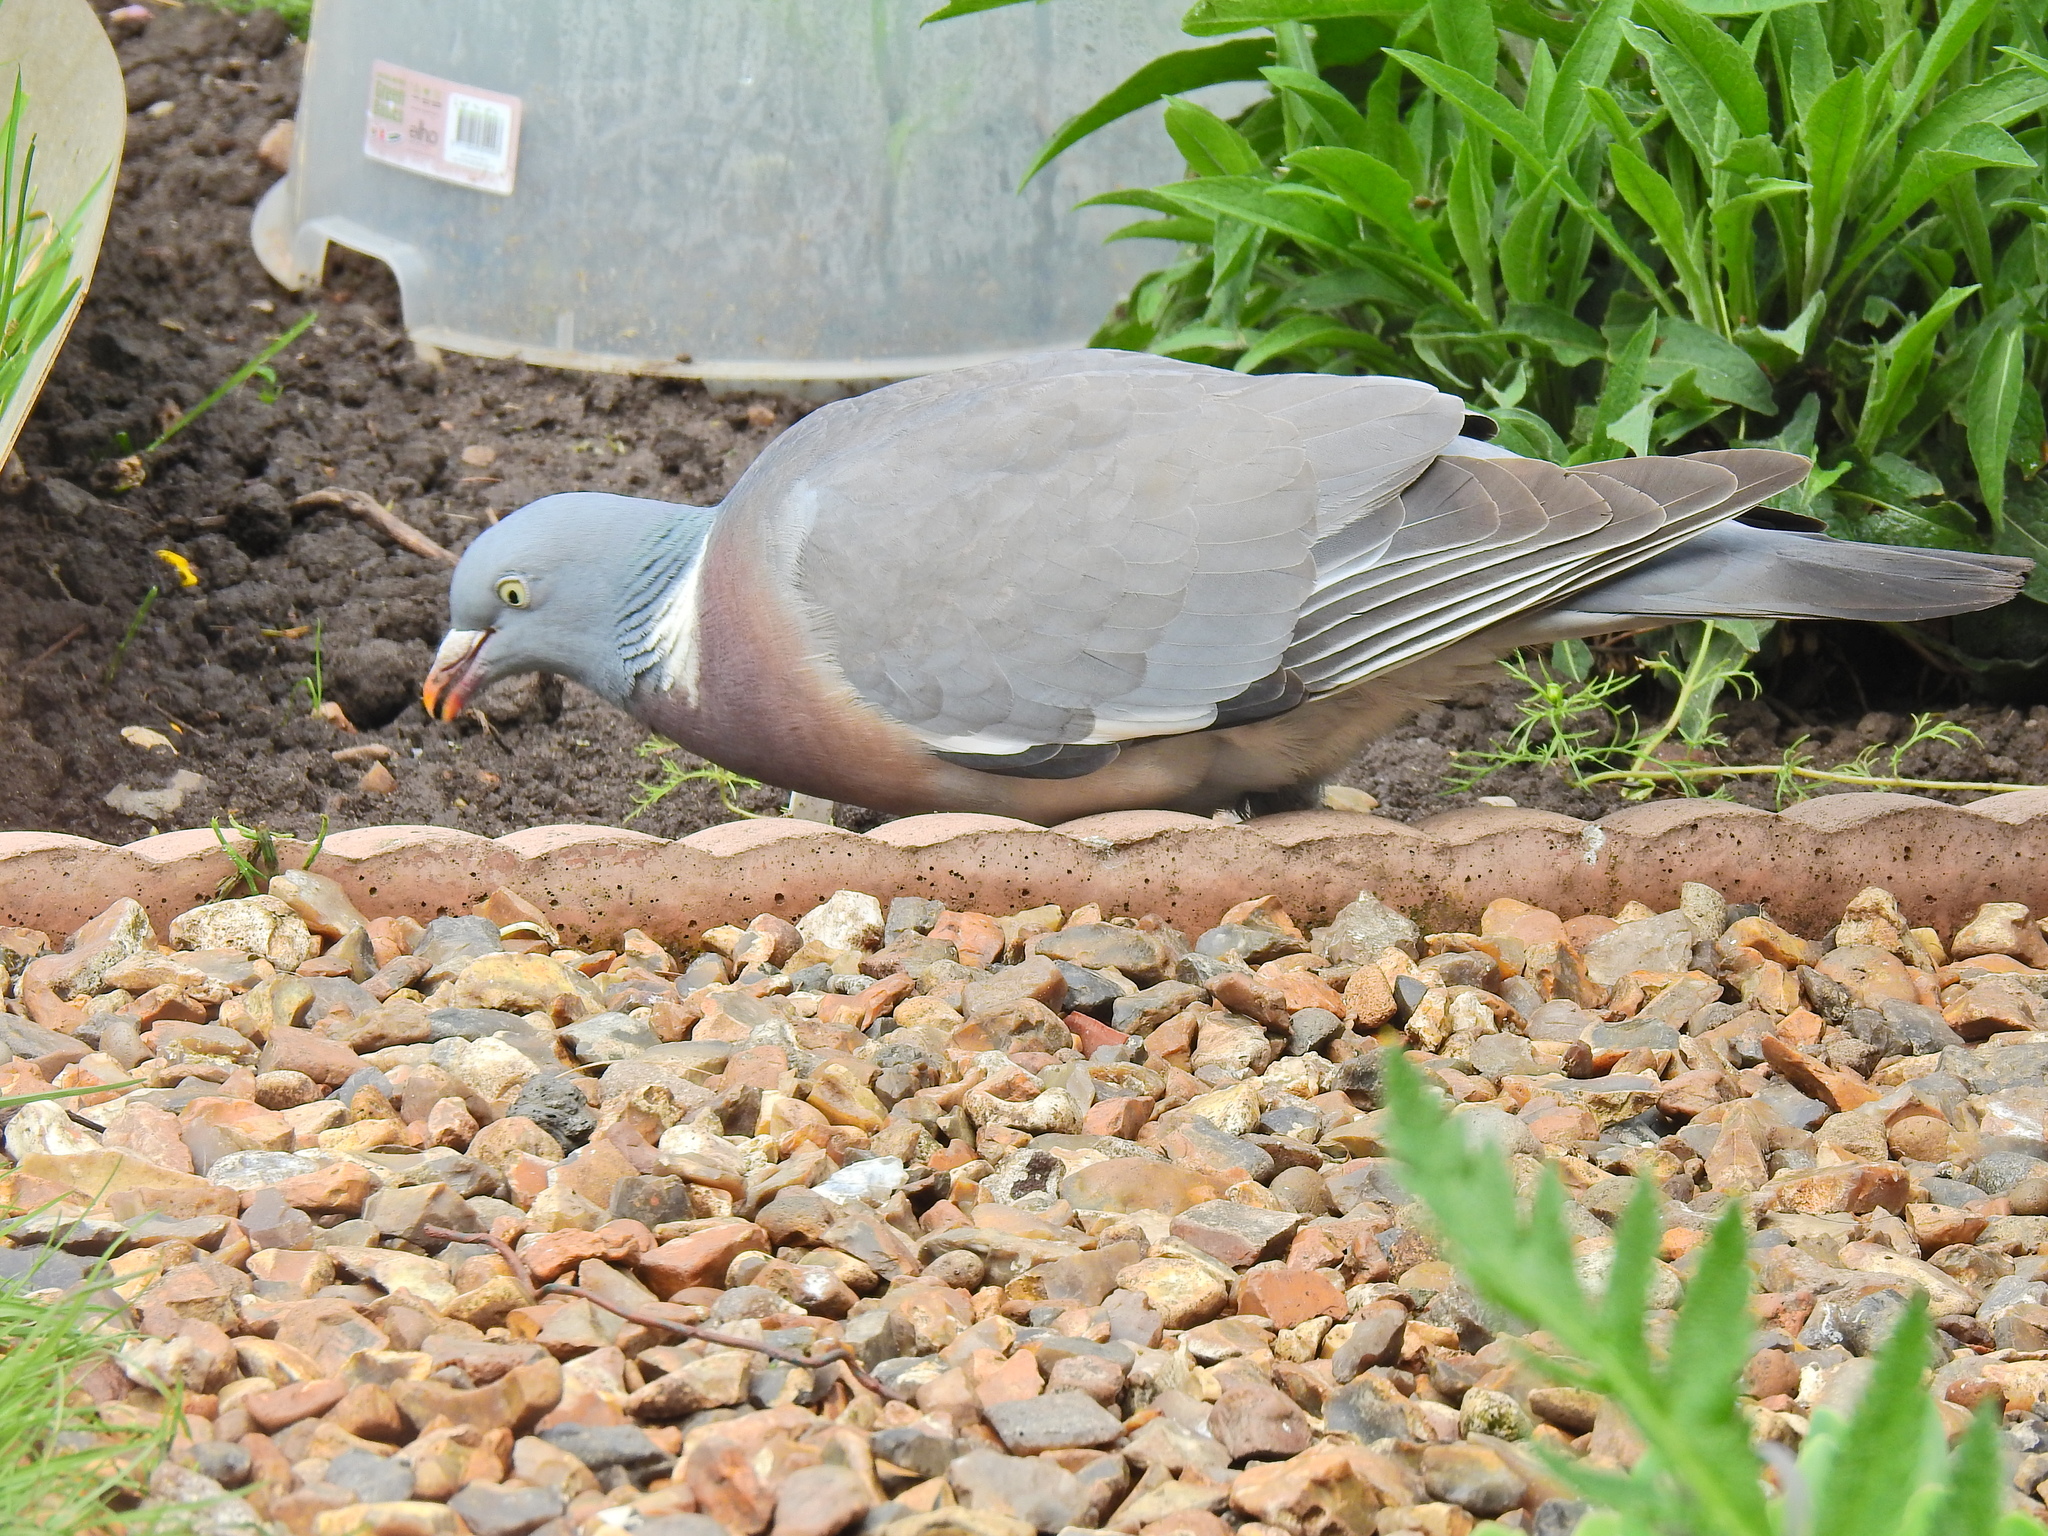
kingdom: Animalia
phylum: Chordata
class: Aves
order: Columbiformes
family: Columbidae
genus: Columba
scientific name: Columba palumbus
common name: Common wood pigeon
